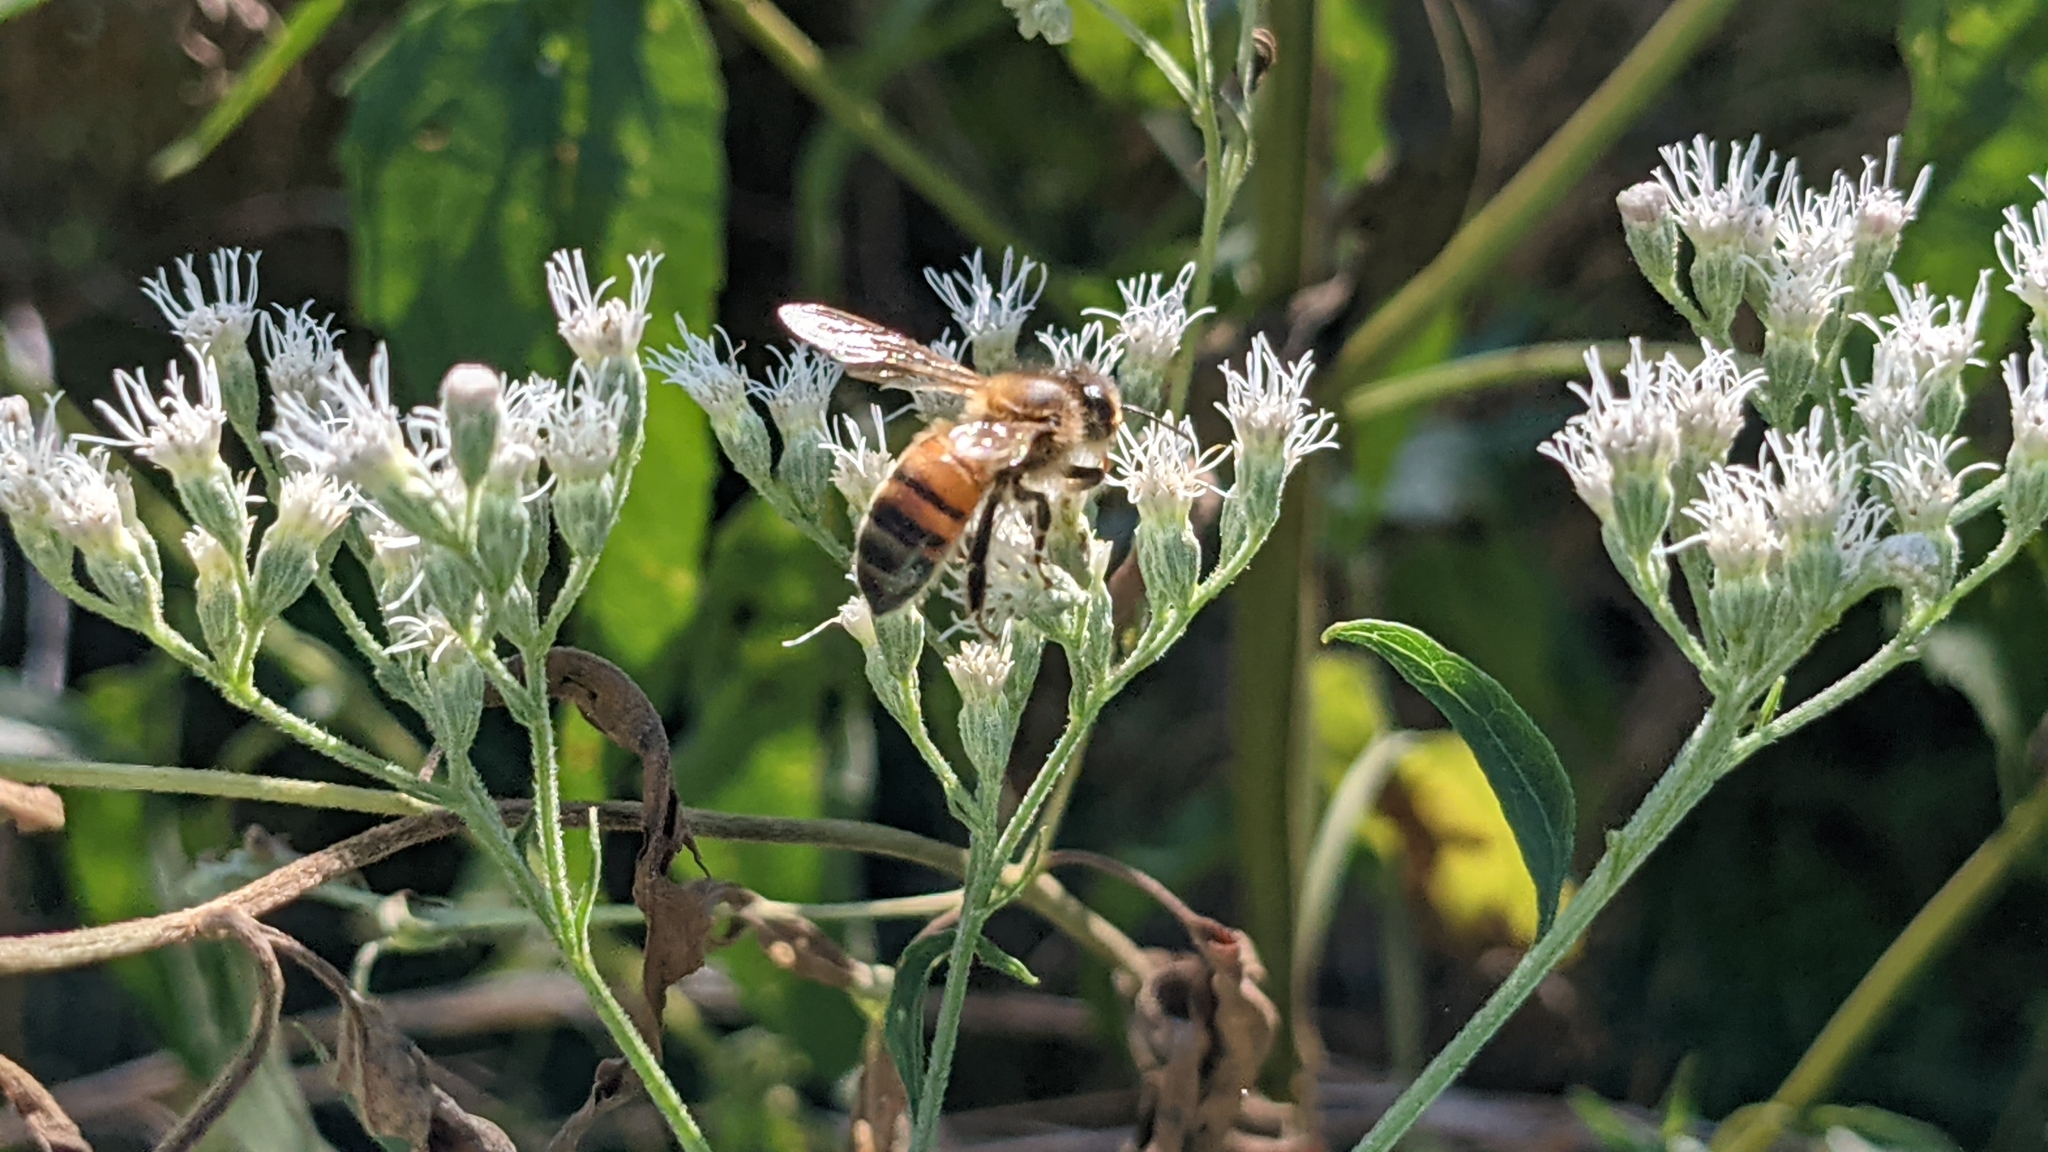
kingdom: Animalia
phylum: Arthropoda
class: Insecta
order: Hymenoptera
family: Apidae
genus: Apis
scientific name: Apis mellifera
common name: Honey bee
